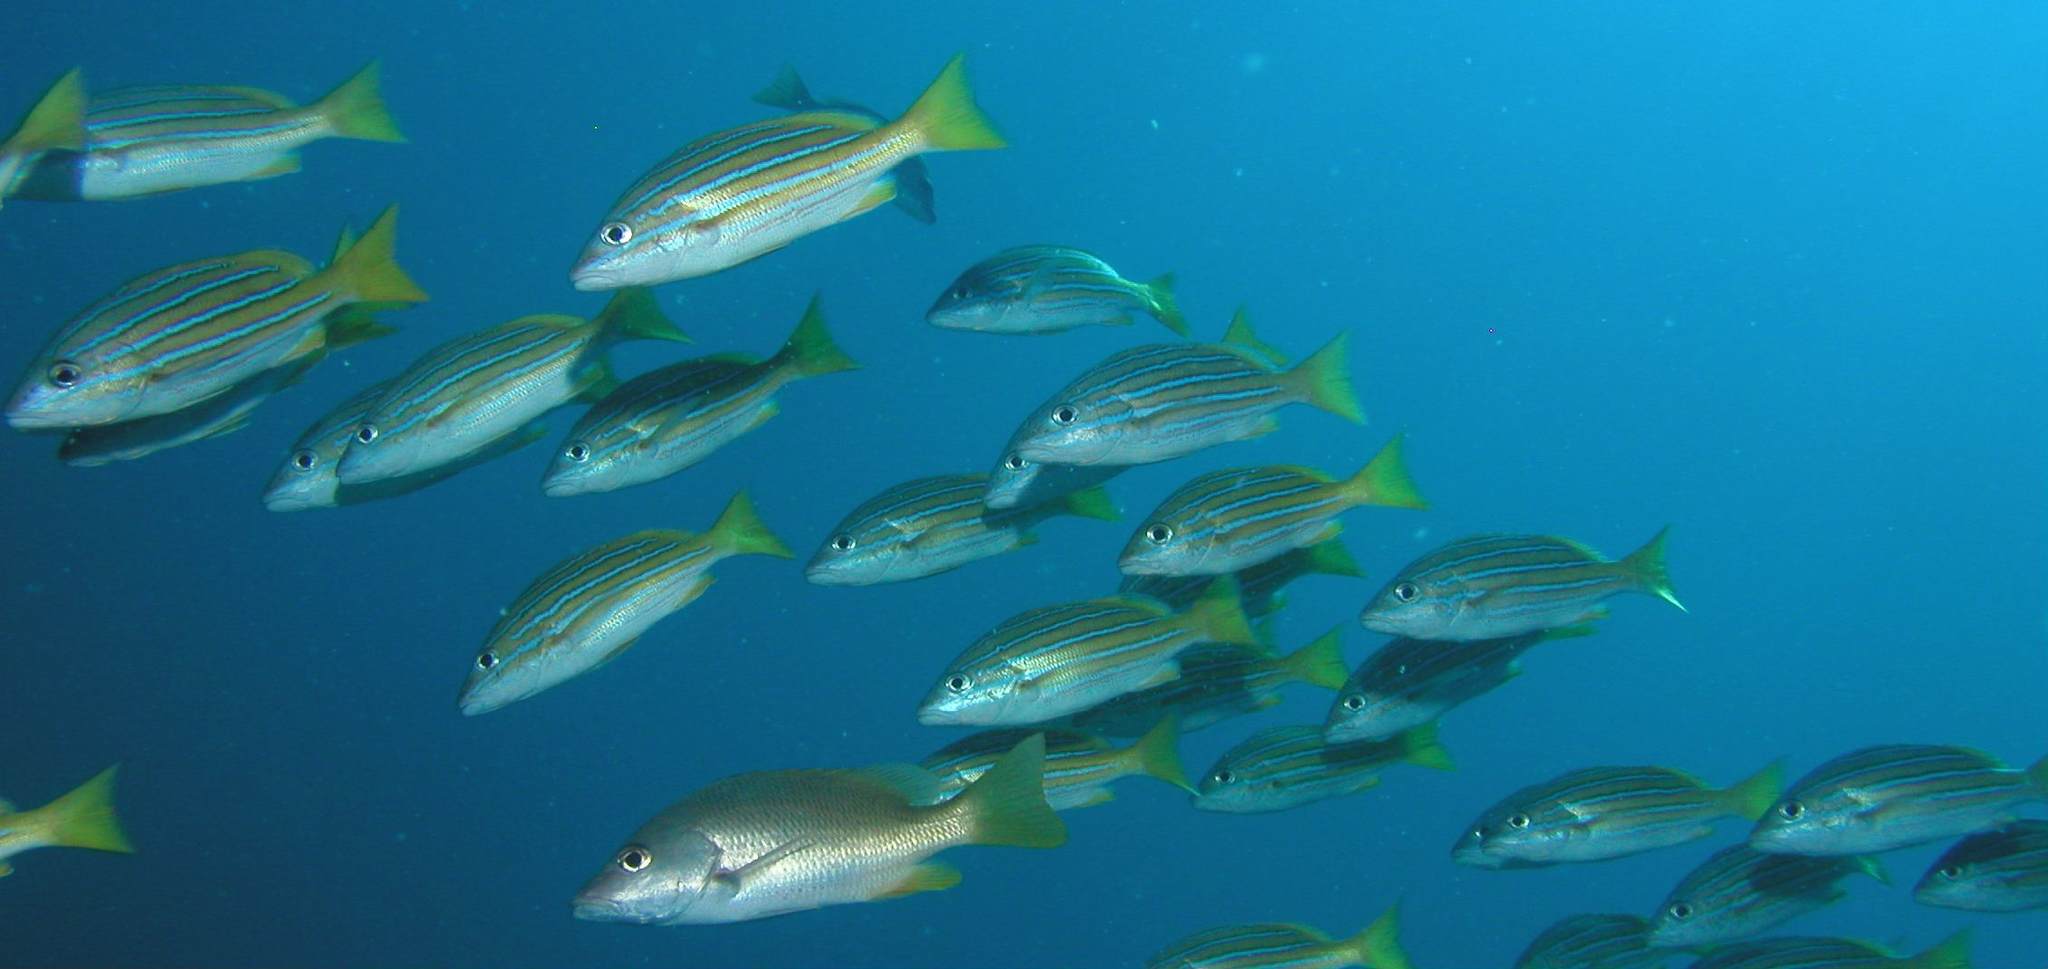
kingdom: Animalia
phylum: Chordata
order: Perciformes
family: Lutjanidae
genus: Lutjanus
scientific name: Lutjanus viridis
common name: Blue and gold snapper
